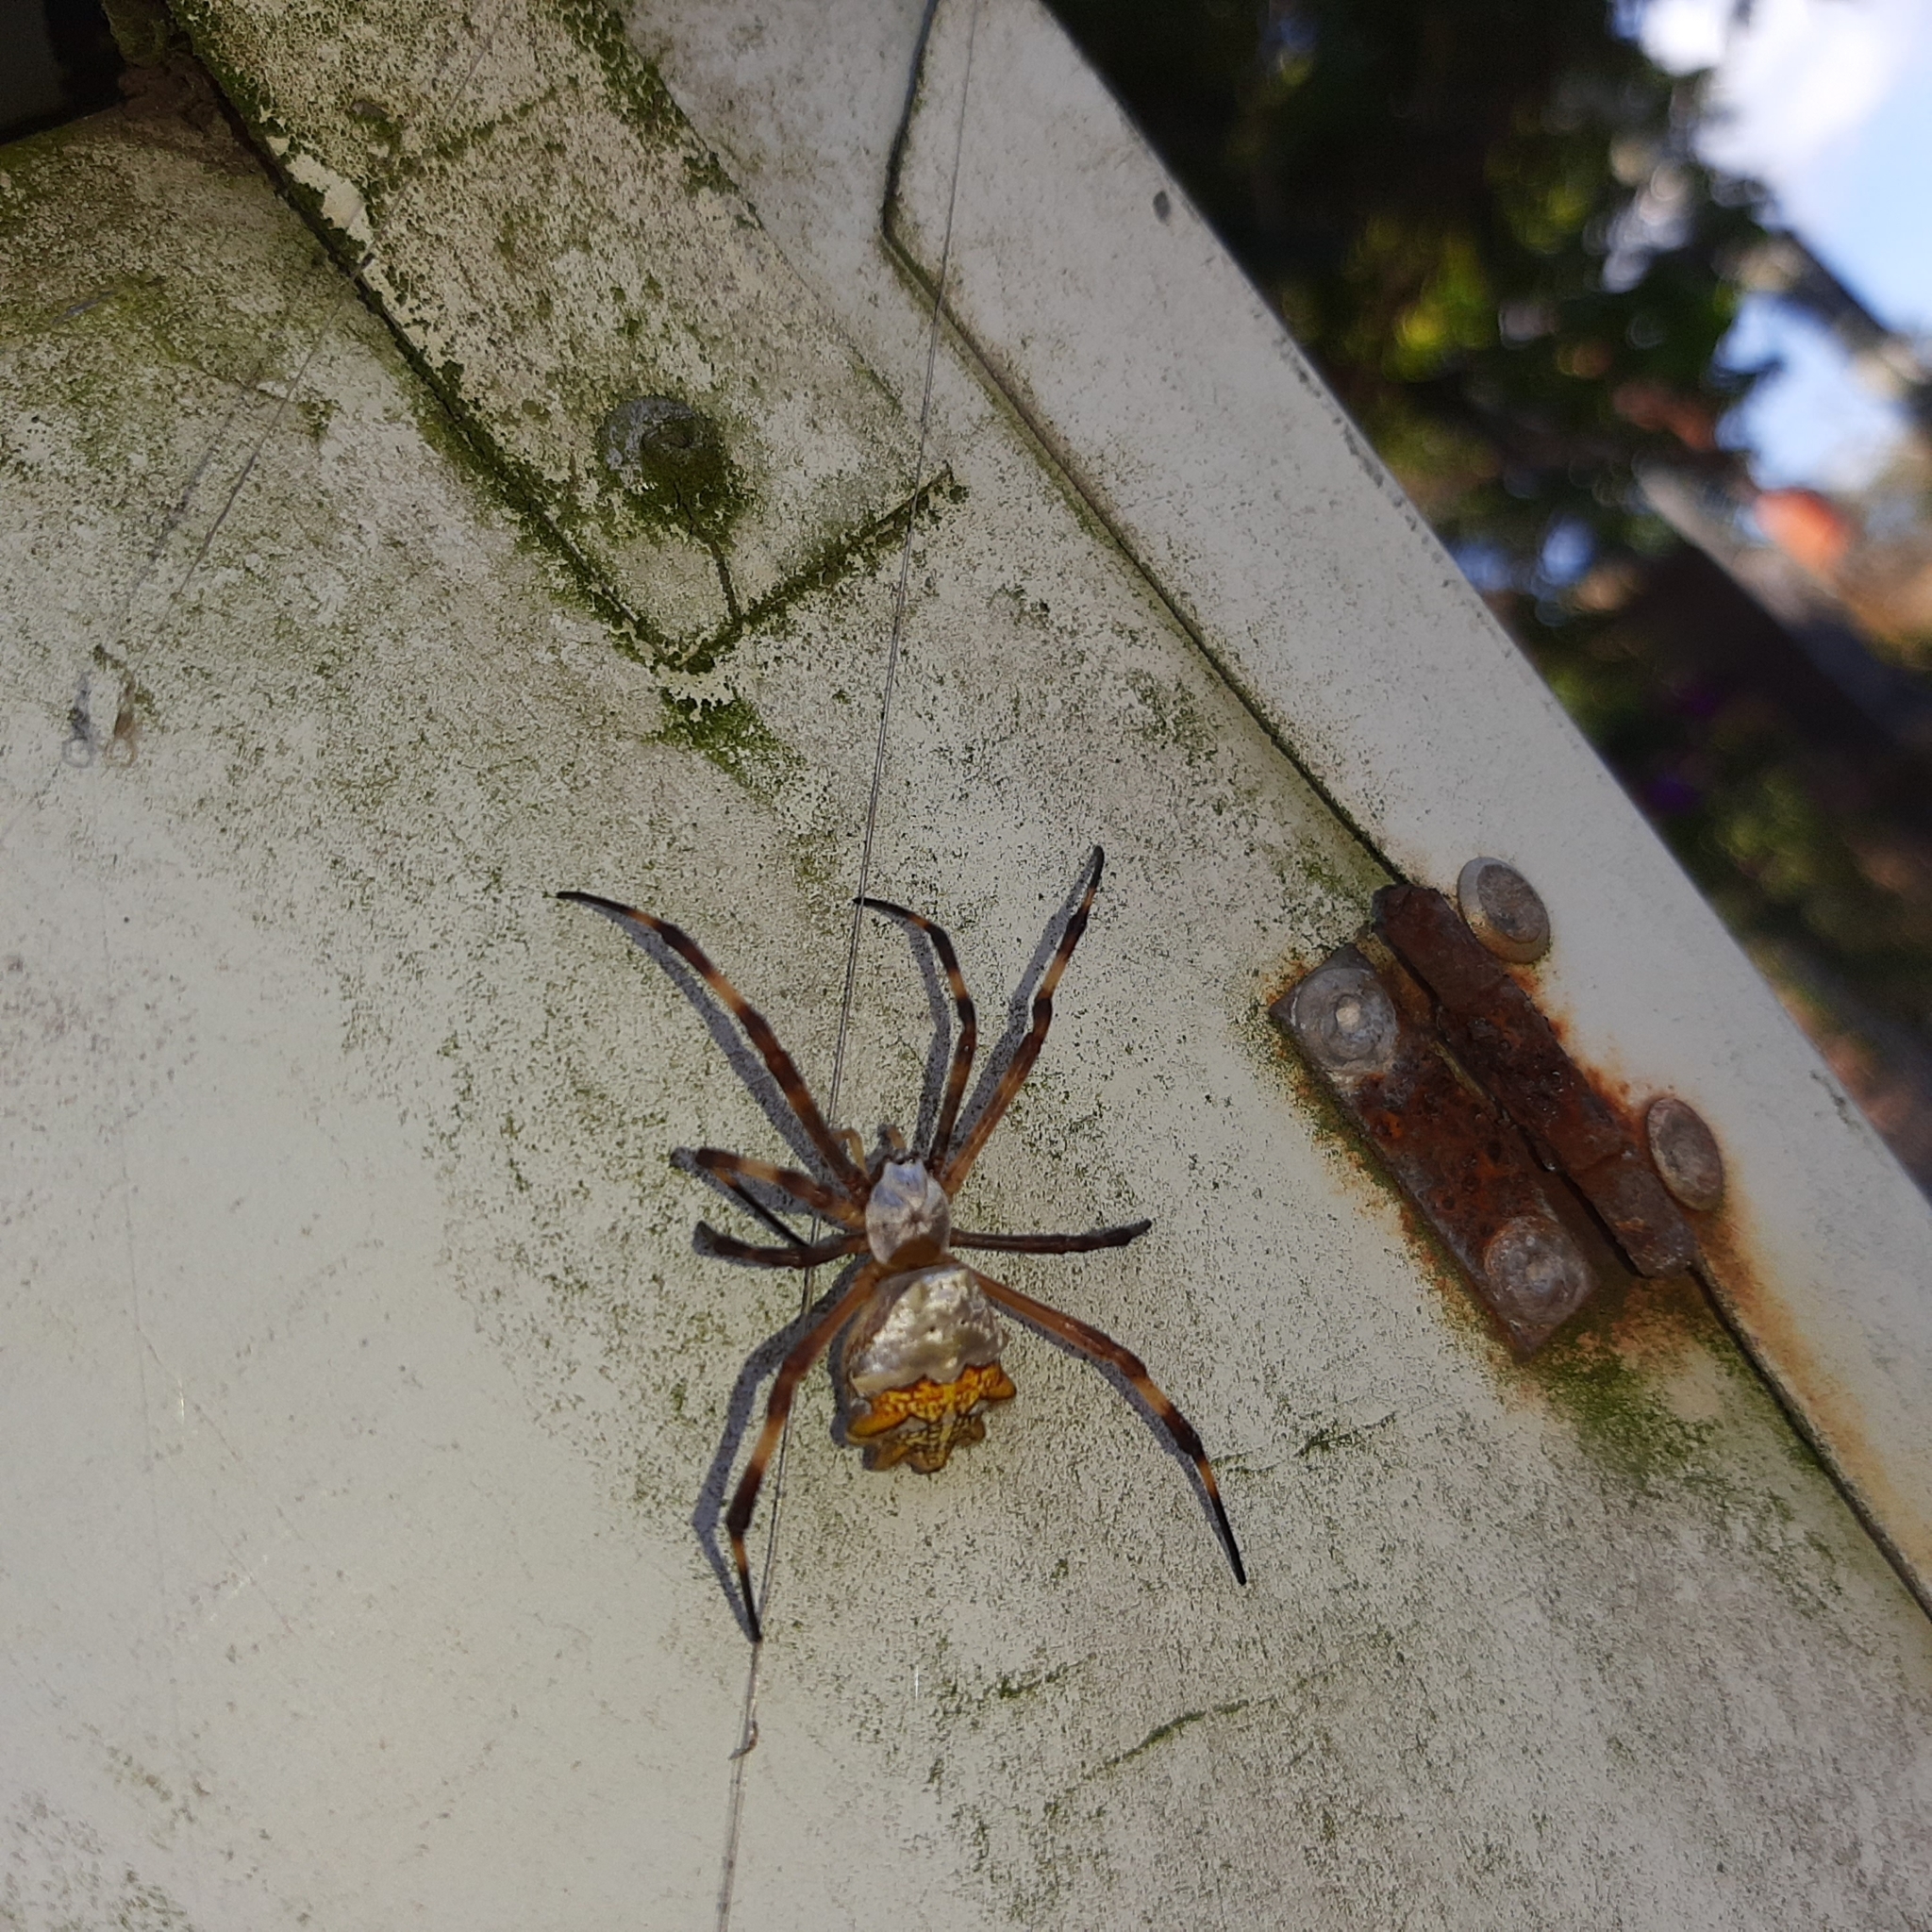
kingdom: Animalia
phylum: Arthropoda
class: Arachnida
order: Araneae
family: Araneidae
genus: Argiope
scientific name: Argiope argentata
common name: Orb weavers
